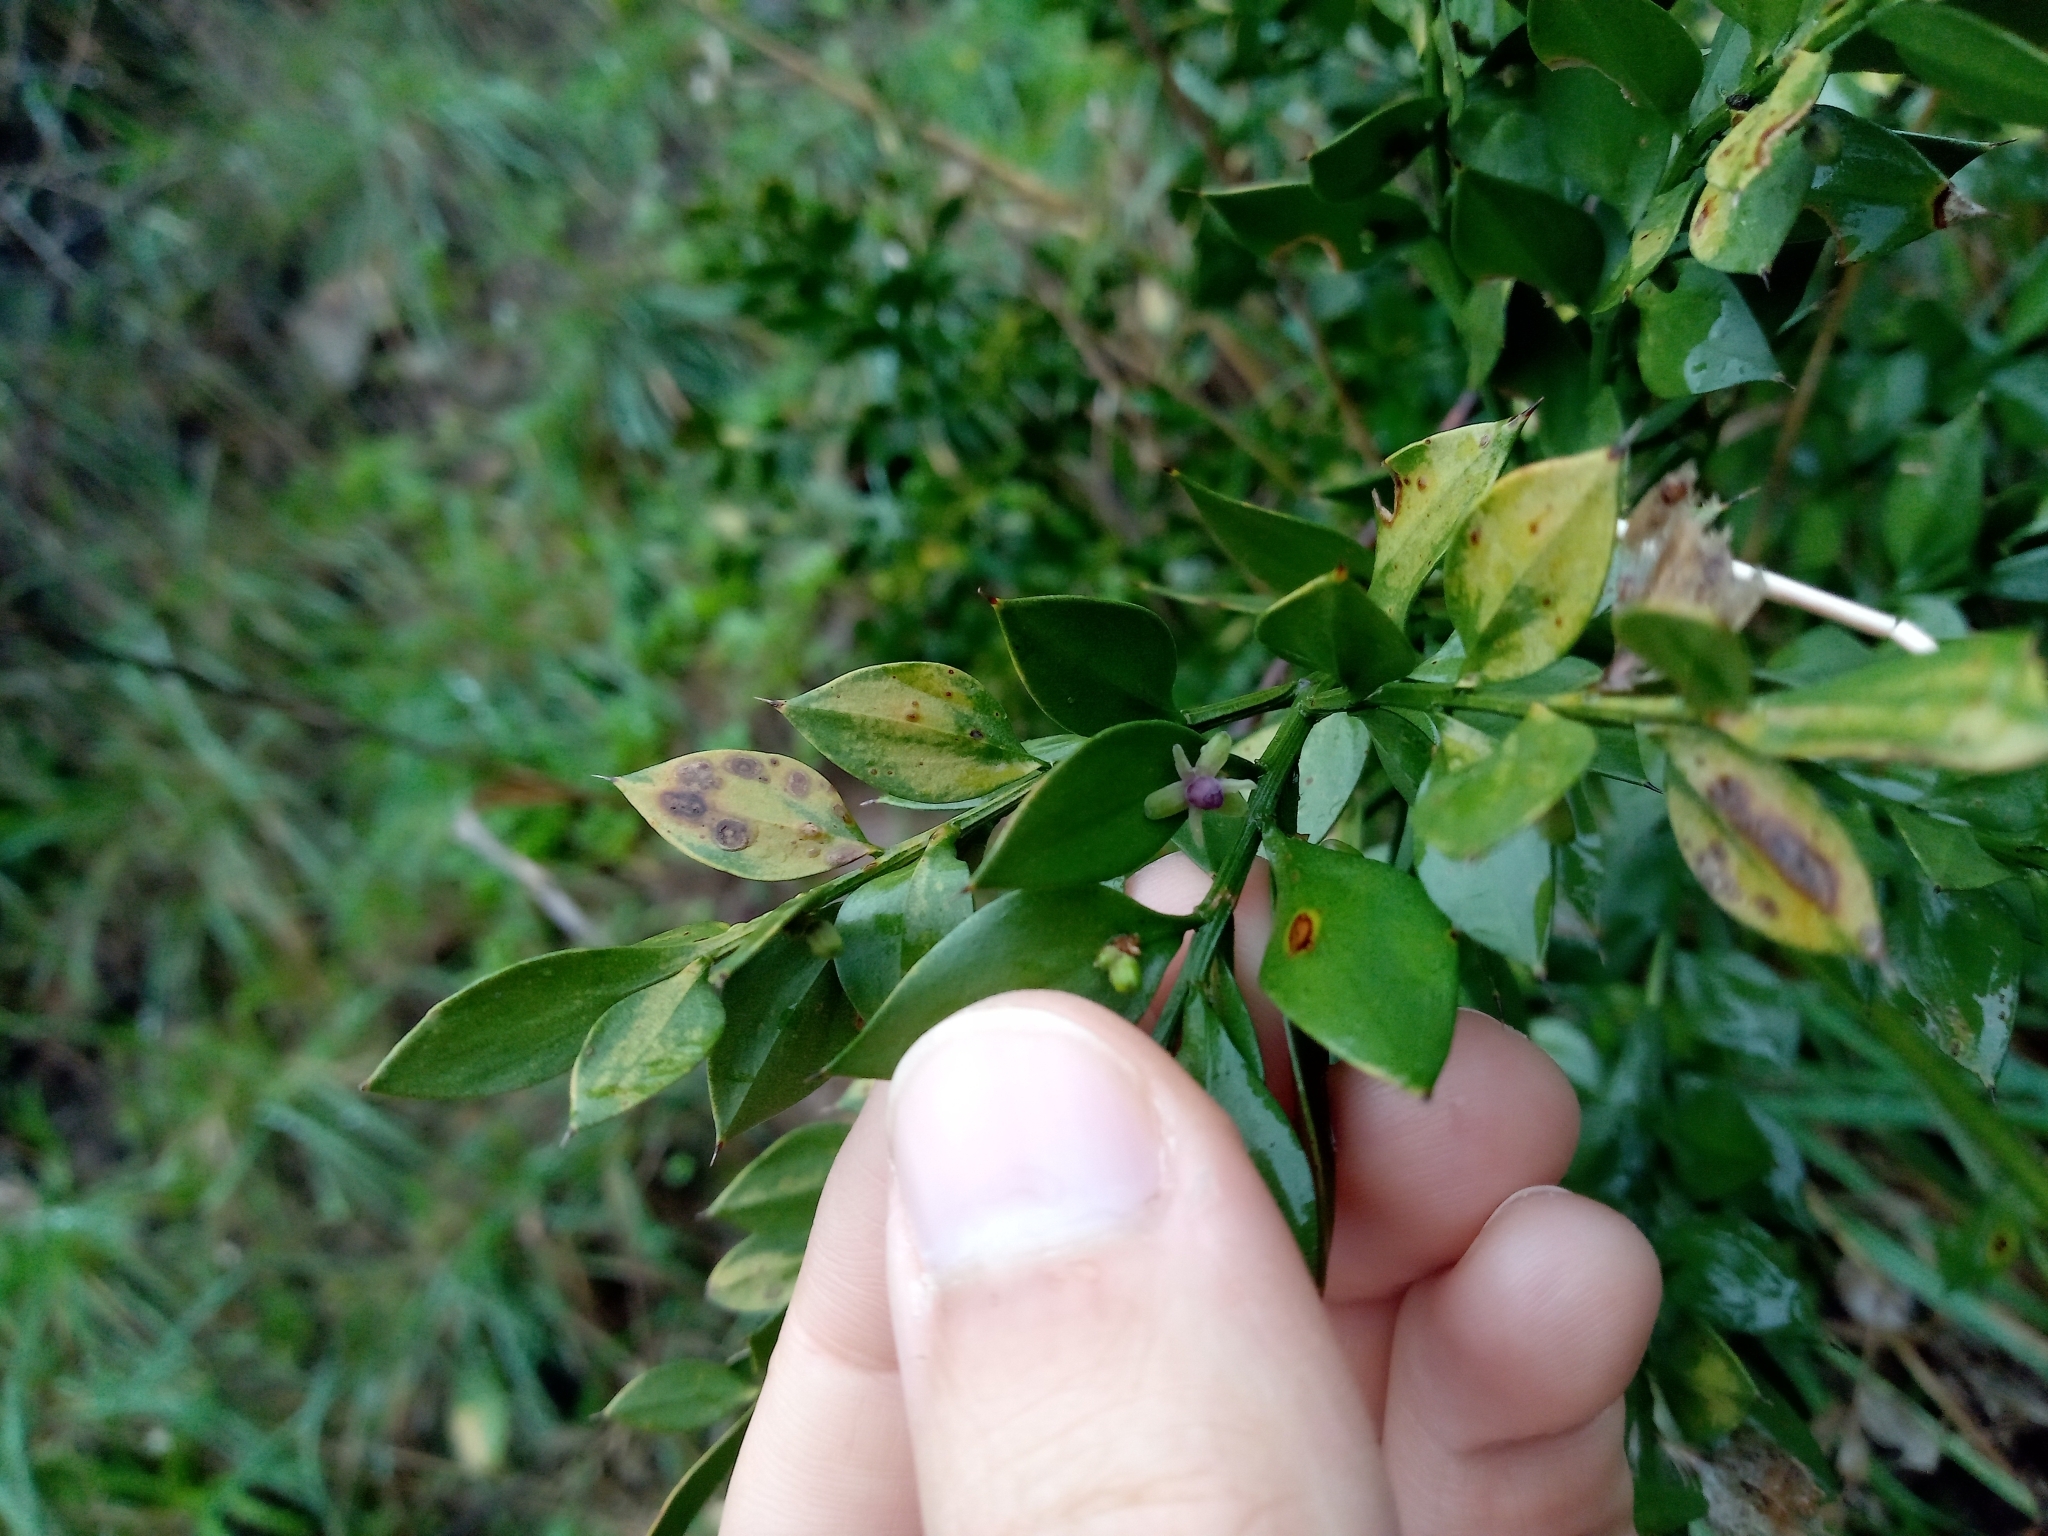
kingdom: Plantae
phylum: Tracheophyta
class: Liliopsida
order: Asparagales
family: Asparagaceae
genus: Ruscus
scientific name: Ruscus aculeatus
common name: Butcher's-broom
